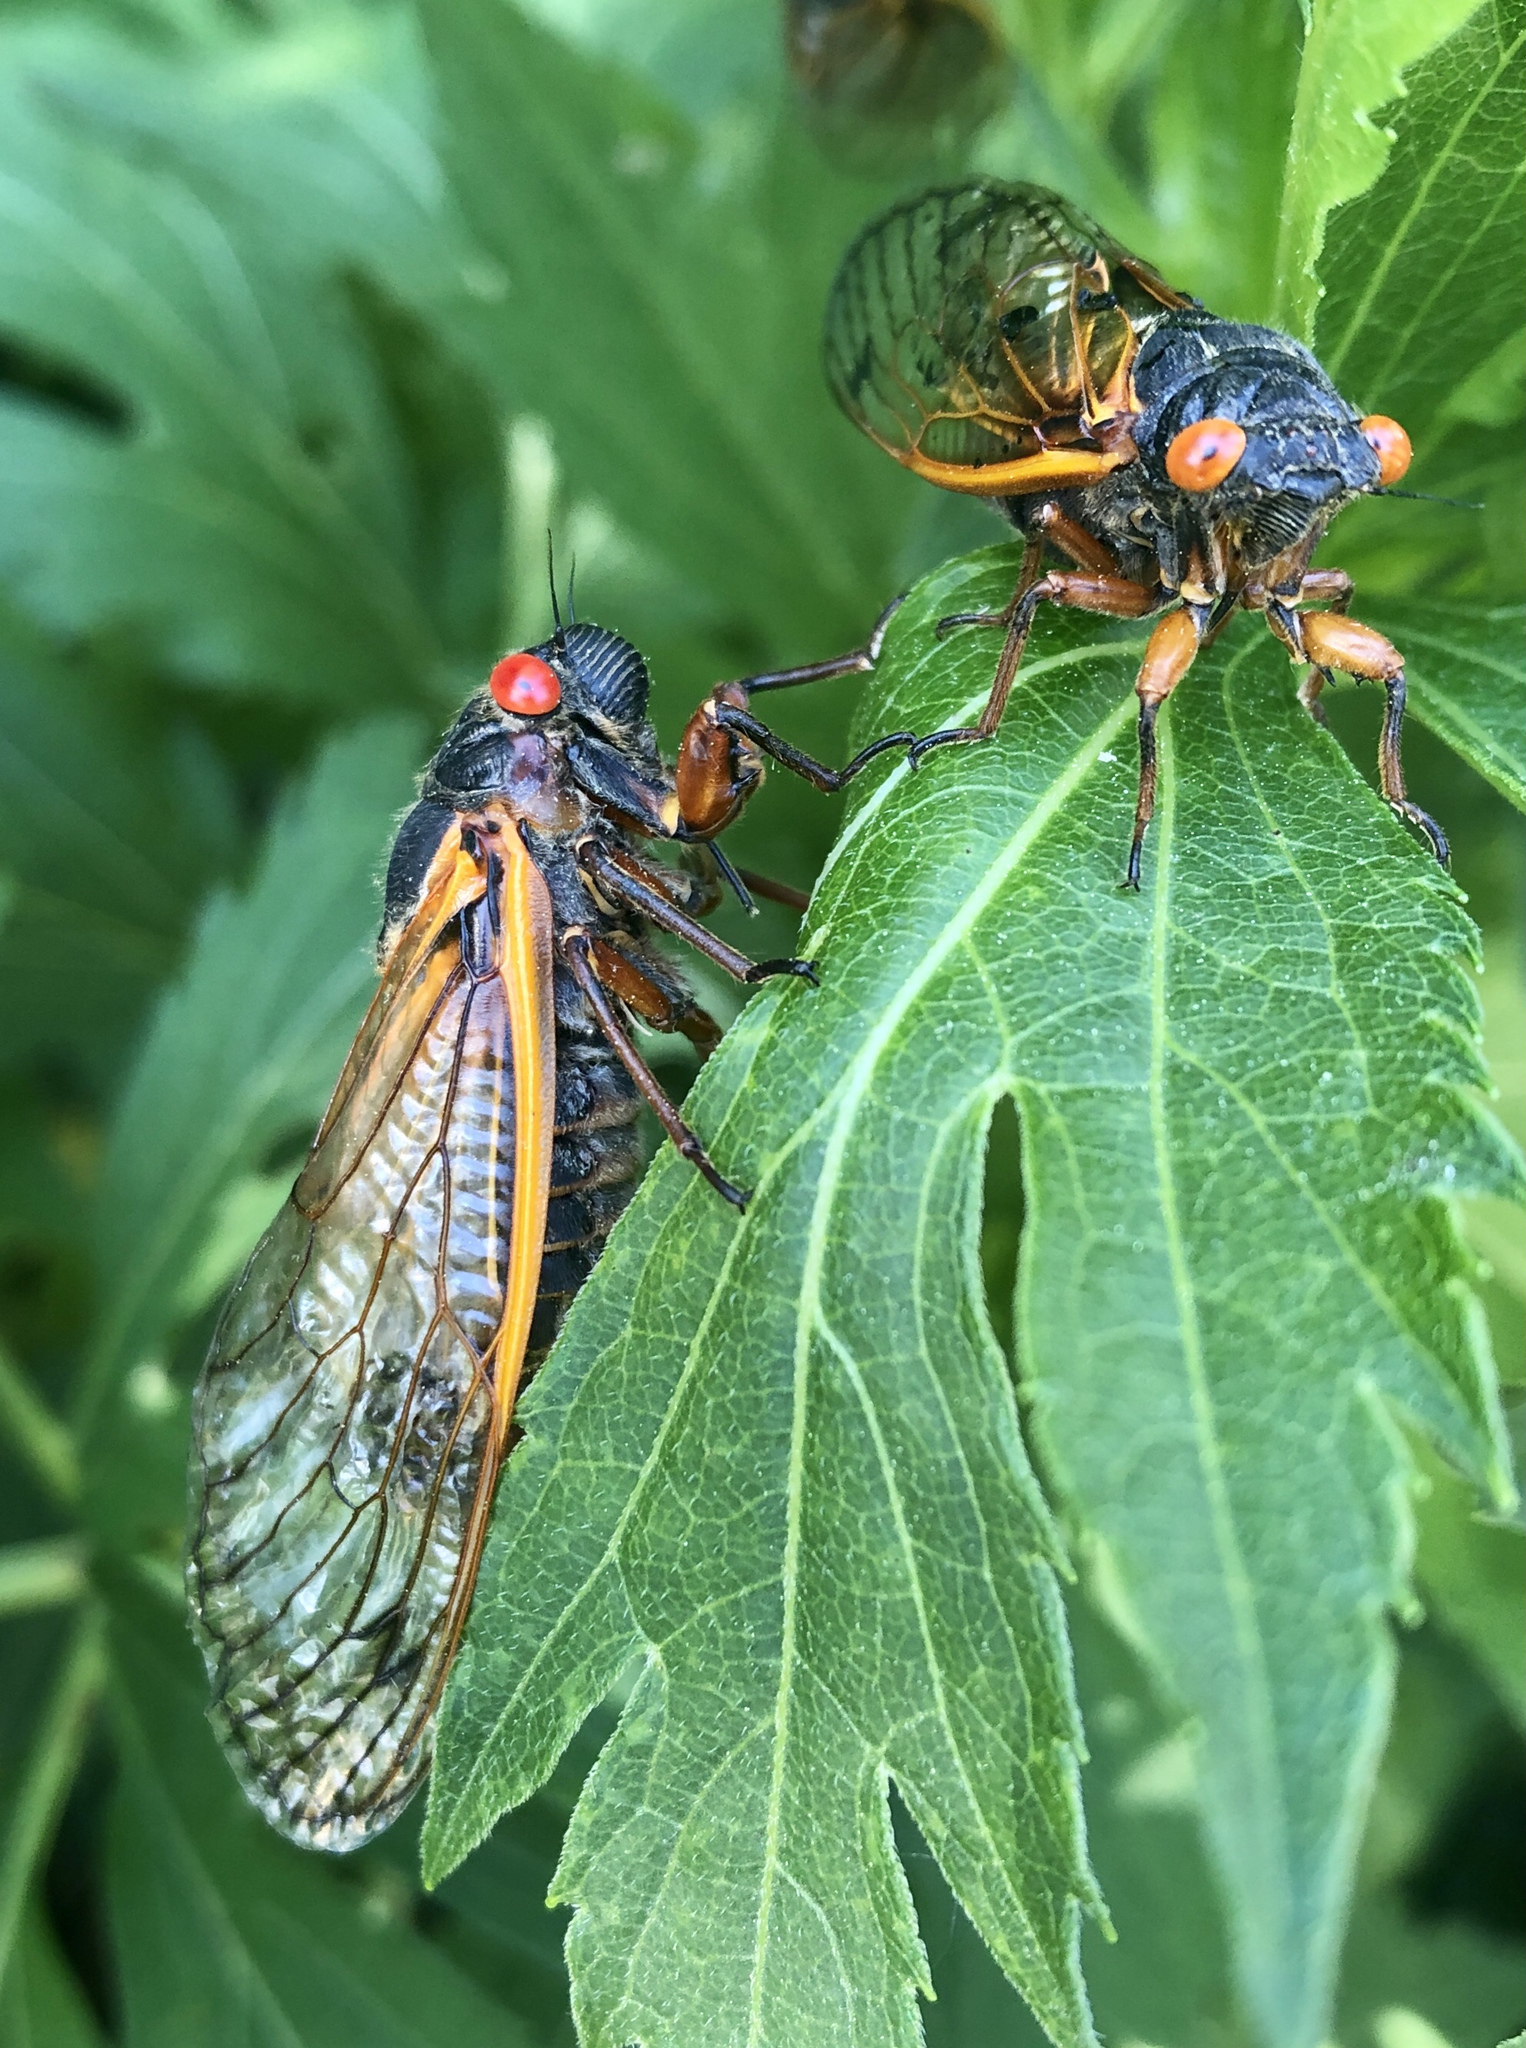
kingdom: Animalia
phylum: Arthropoda
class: Insecta
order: Hemiptera
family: Cicadidae
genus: Magicicada
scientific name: Magicicada septendecim
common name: Periodical cicada
